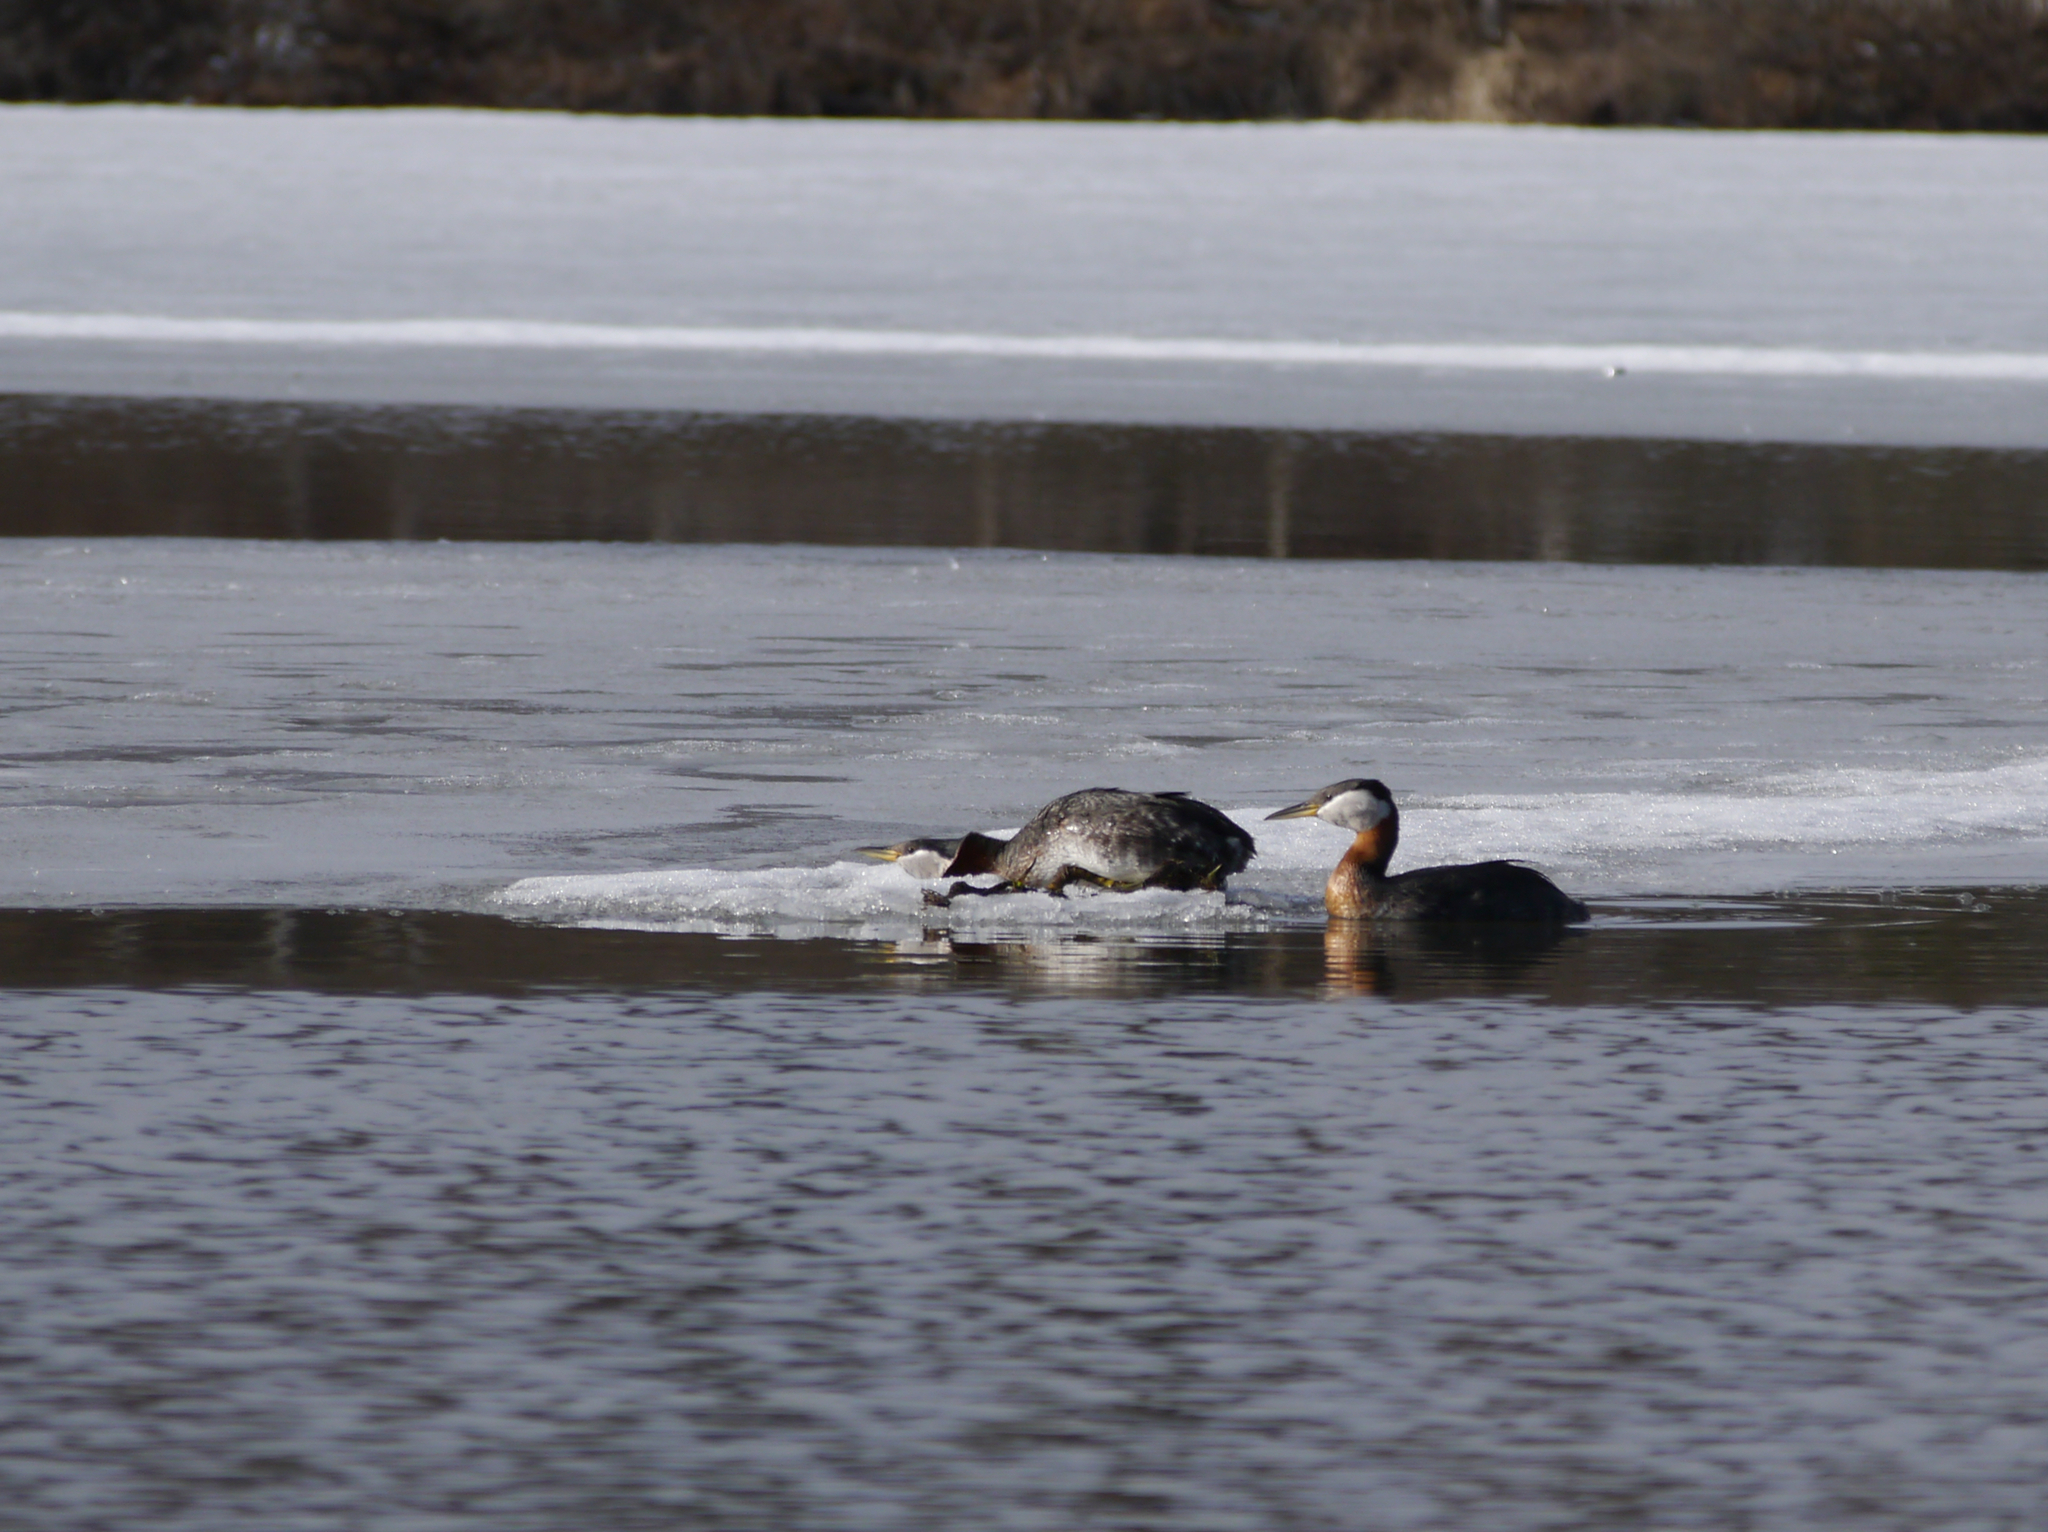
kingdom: Animalia
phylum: Chordata
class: Aves
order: Podicipediformes
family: Podicipedidae
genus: Podiceps
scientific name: Podiceps grisegena
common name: Red-necked grebe
